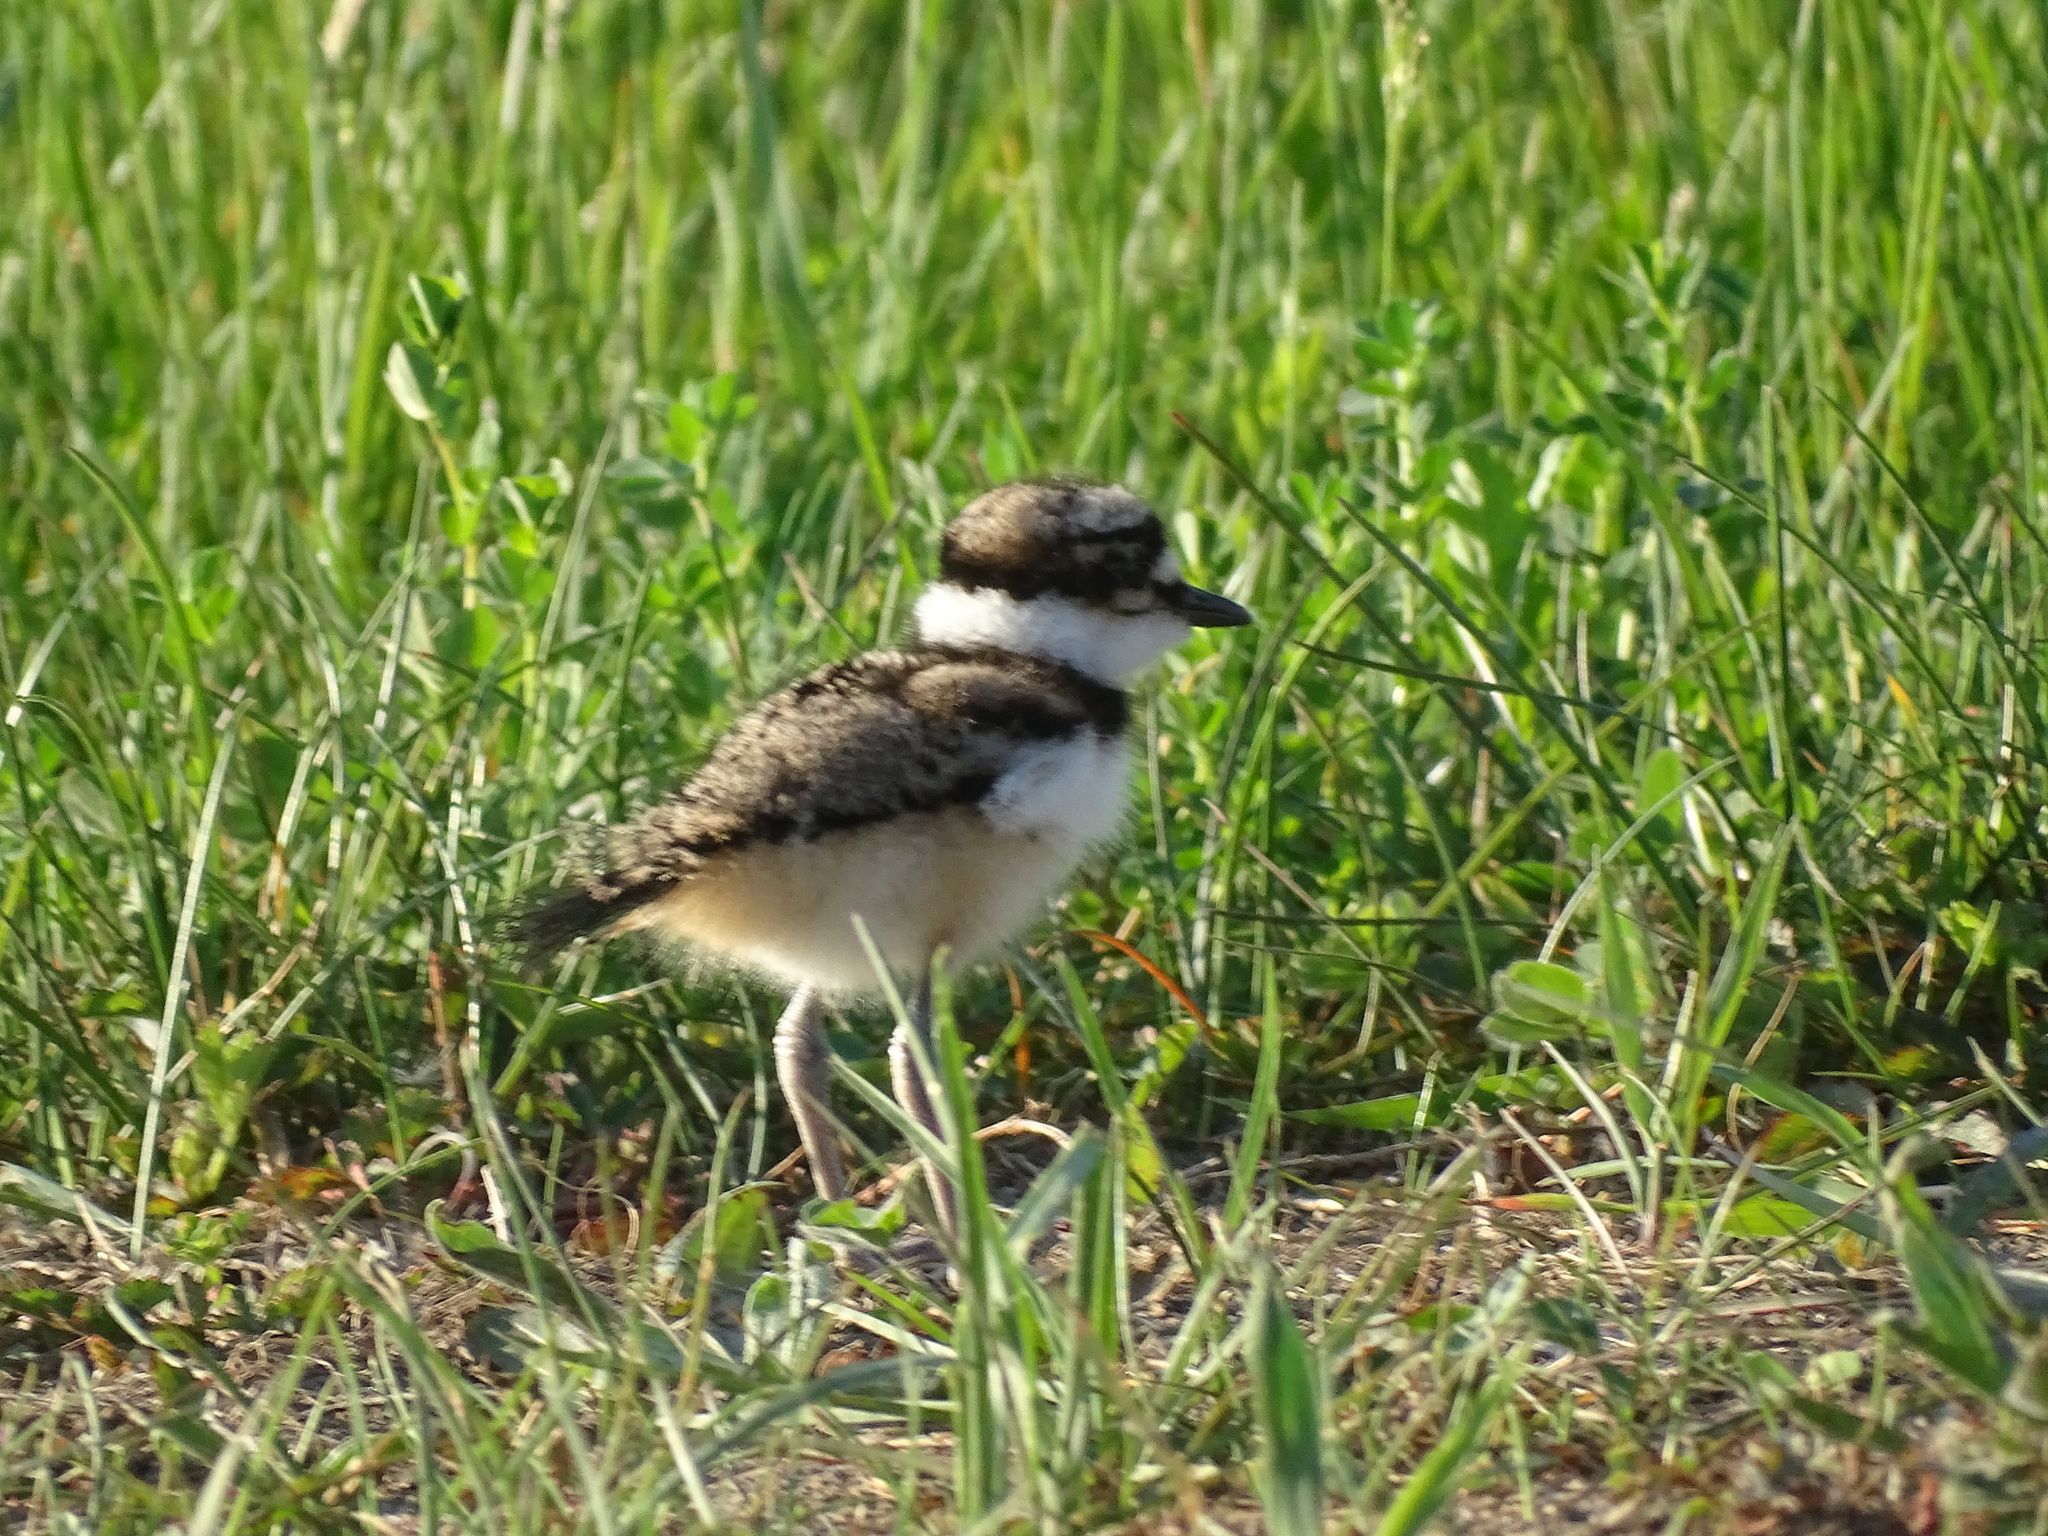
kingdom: Animalia
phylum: Chordata
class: Aves
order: Charadriiformes
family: Charadriidae
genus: Charadrius
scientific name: Charadrius vociferus
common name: Killdeer
